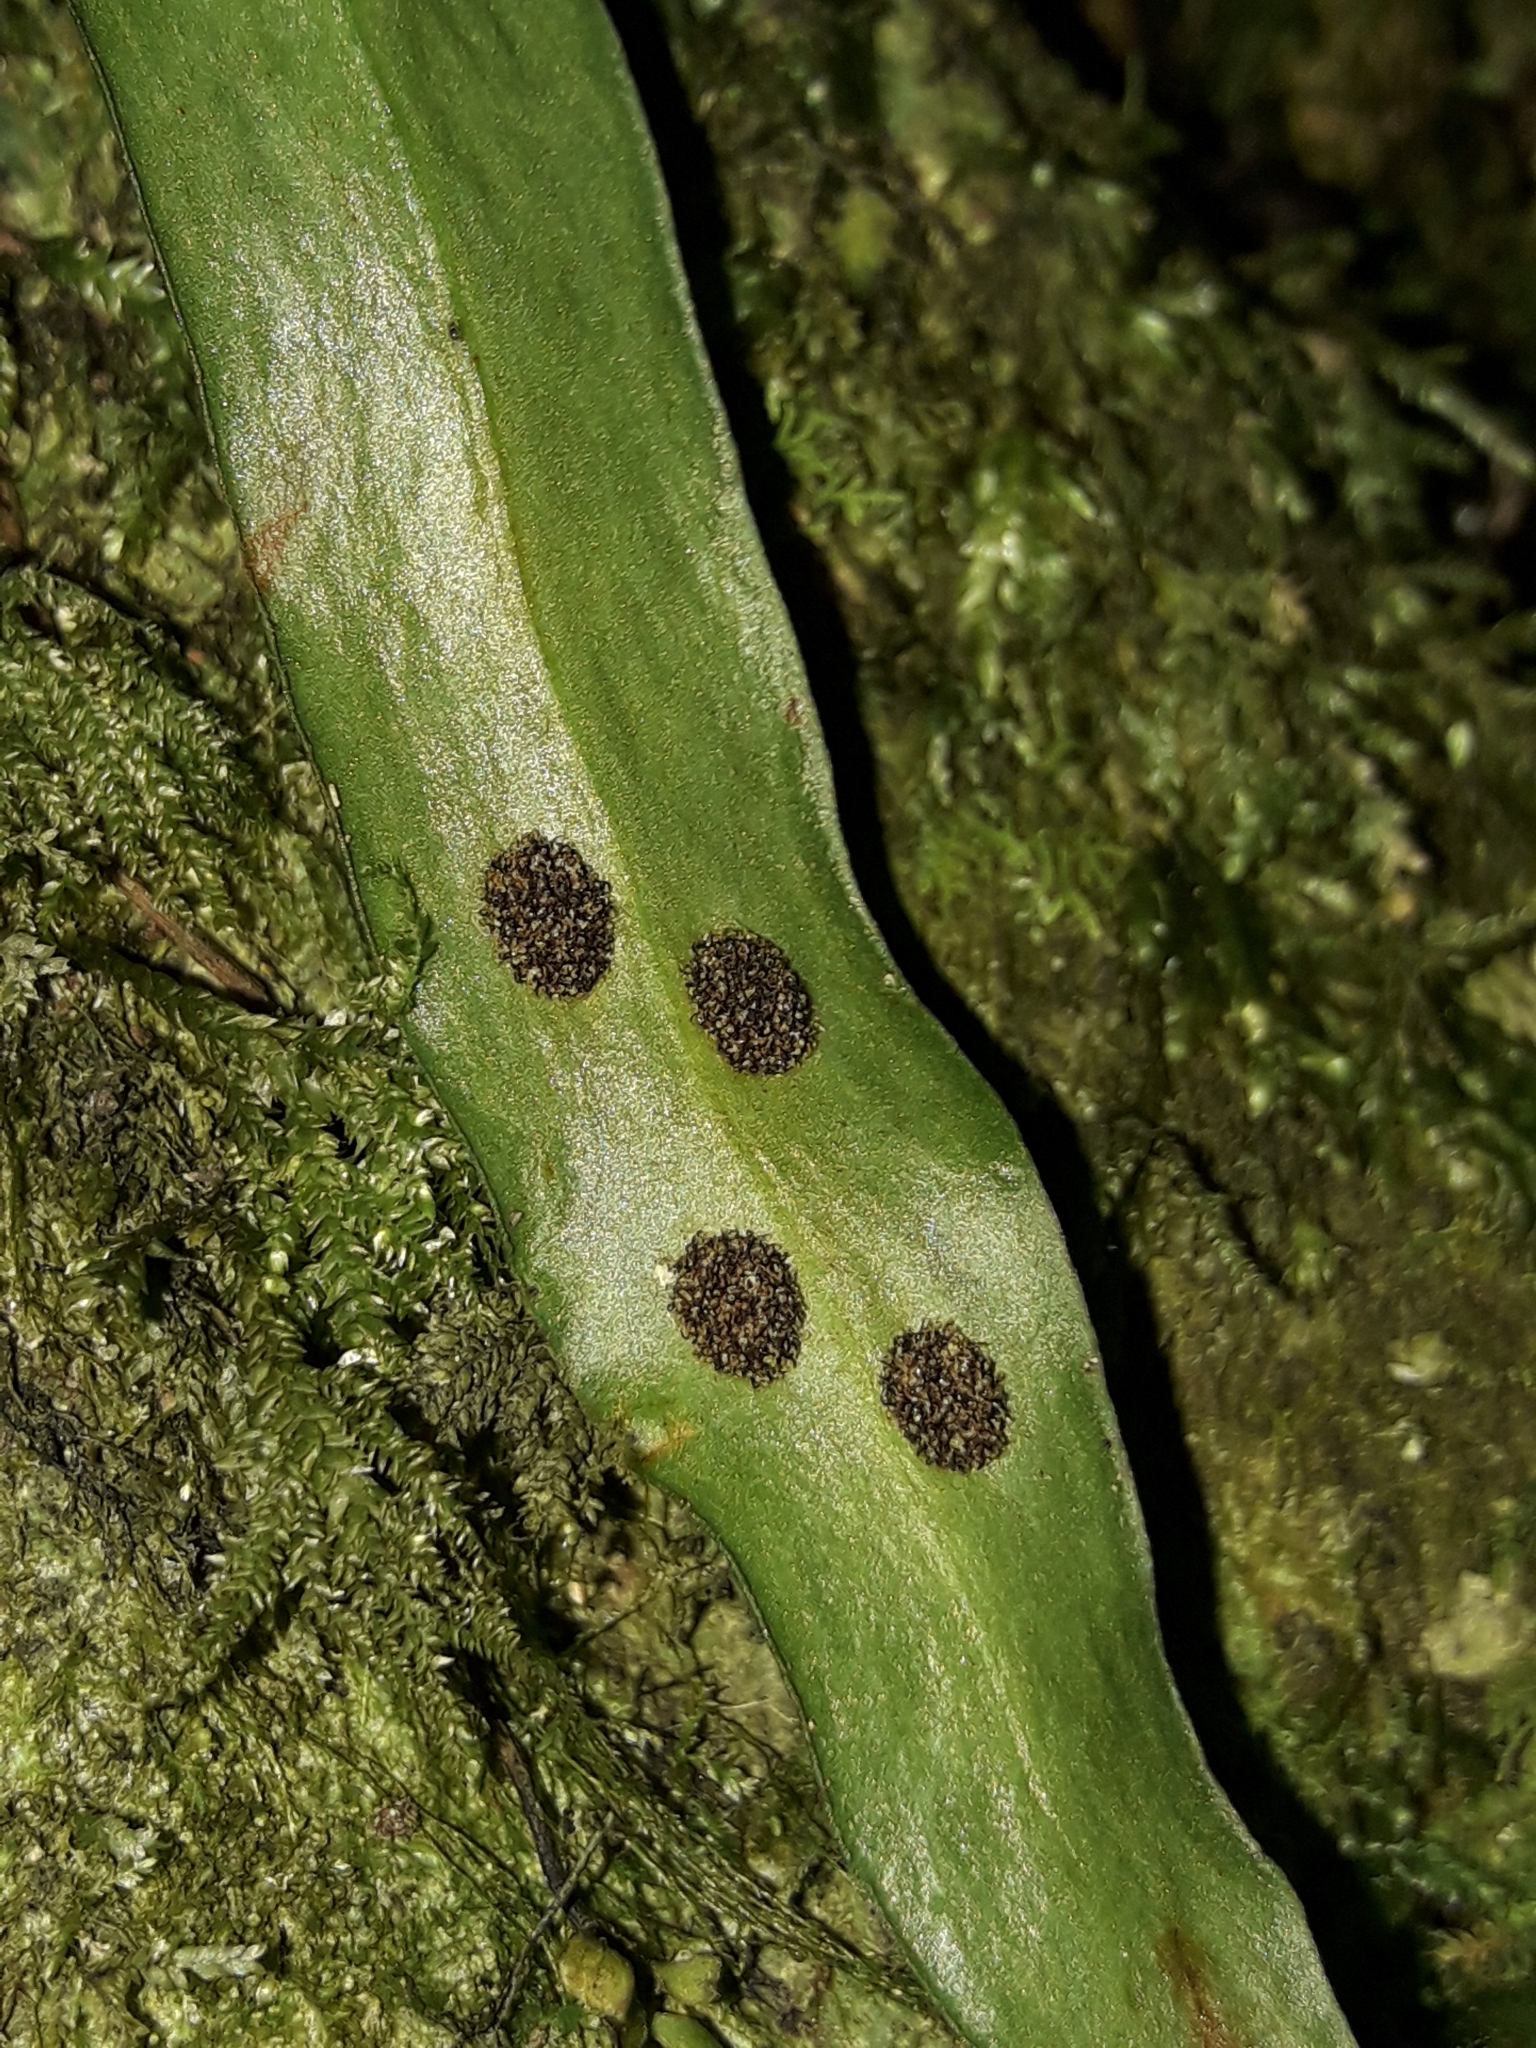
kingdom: Plantae
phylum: Tracheophyta
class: Polypodiopsida
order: Polypodiales
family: Polypodiaceae
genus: Loxogramme
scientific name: Loxogramme dictyopteris
